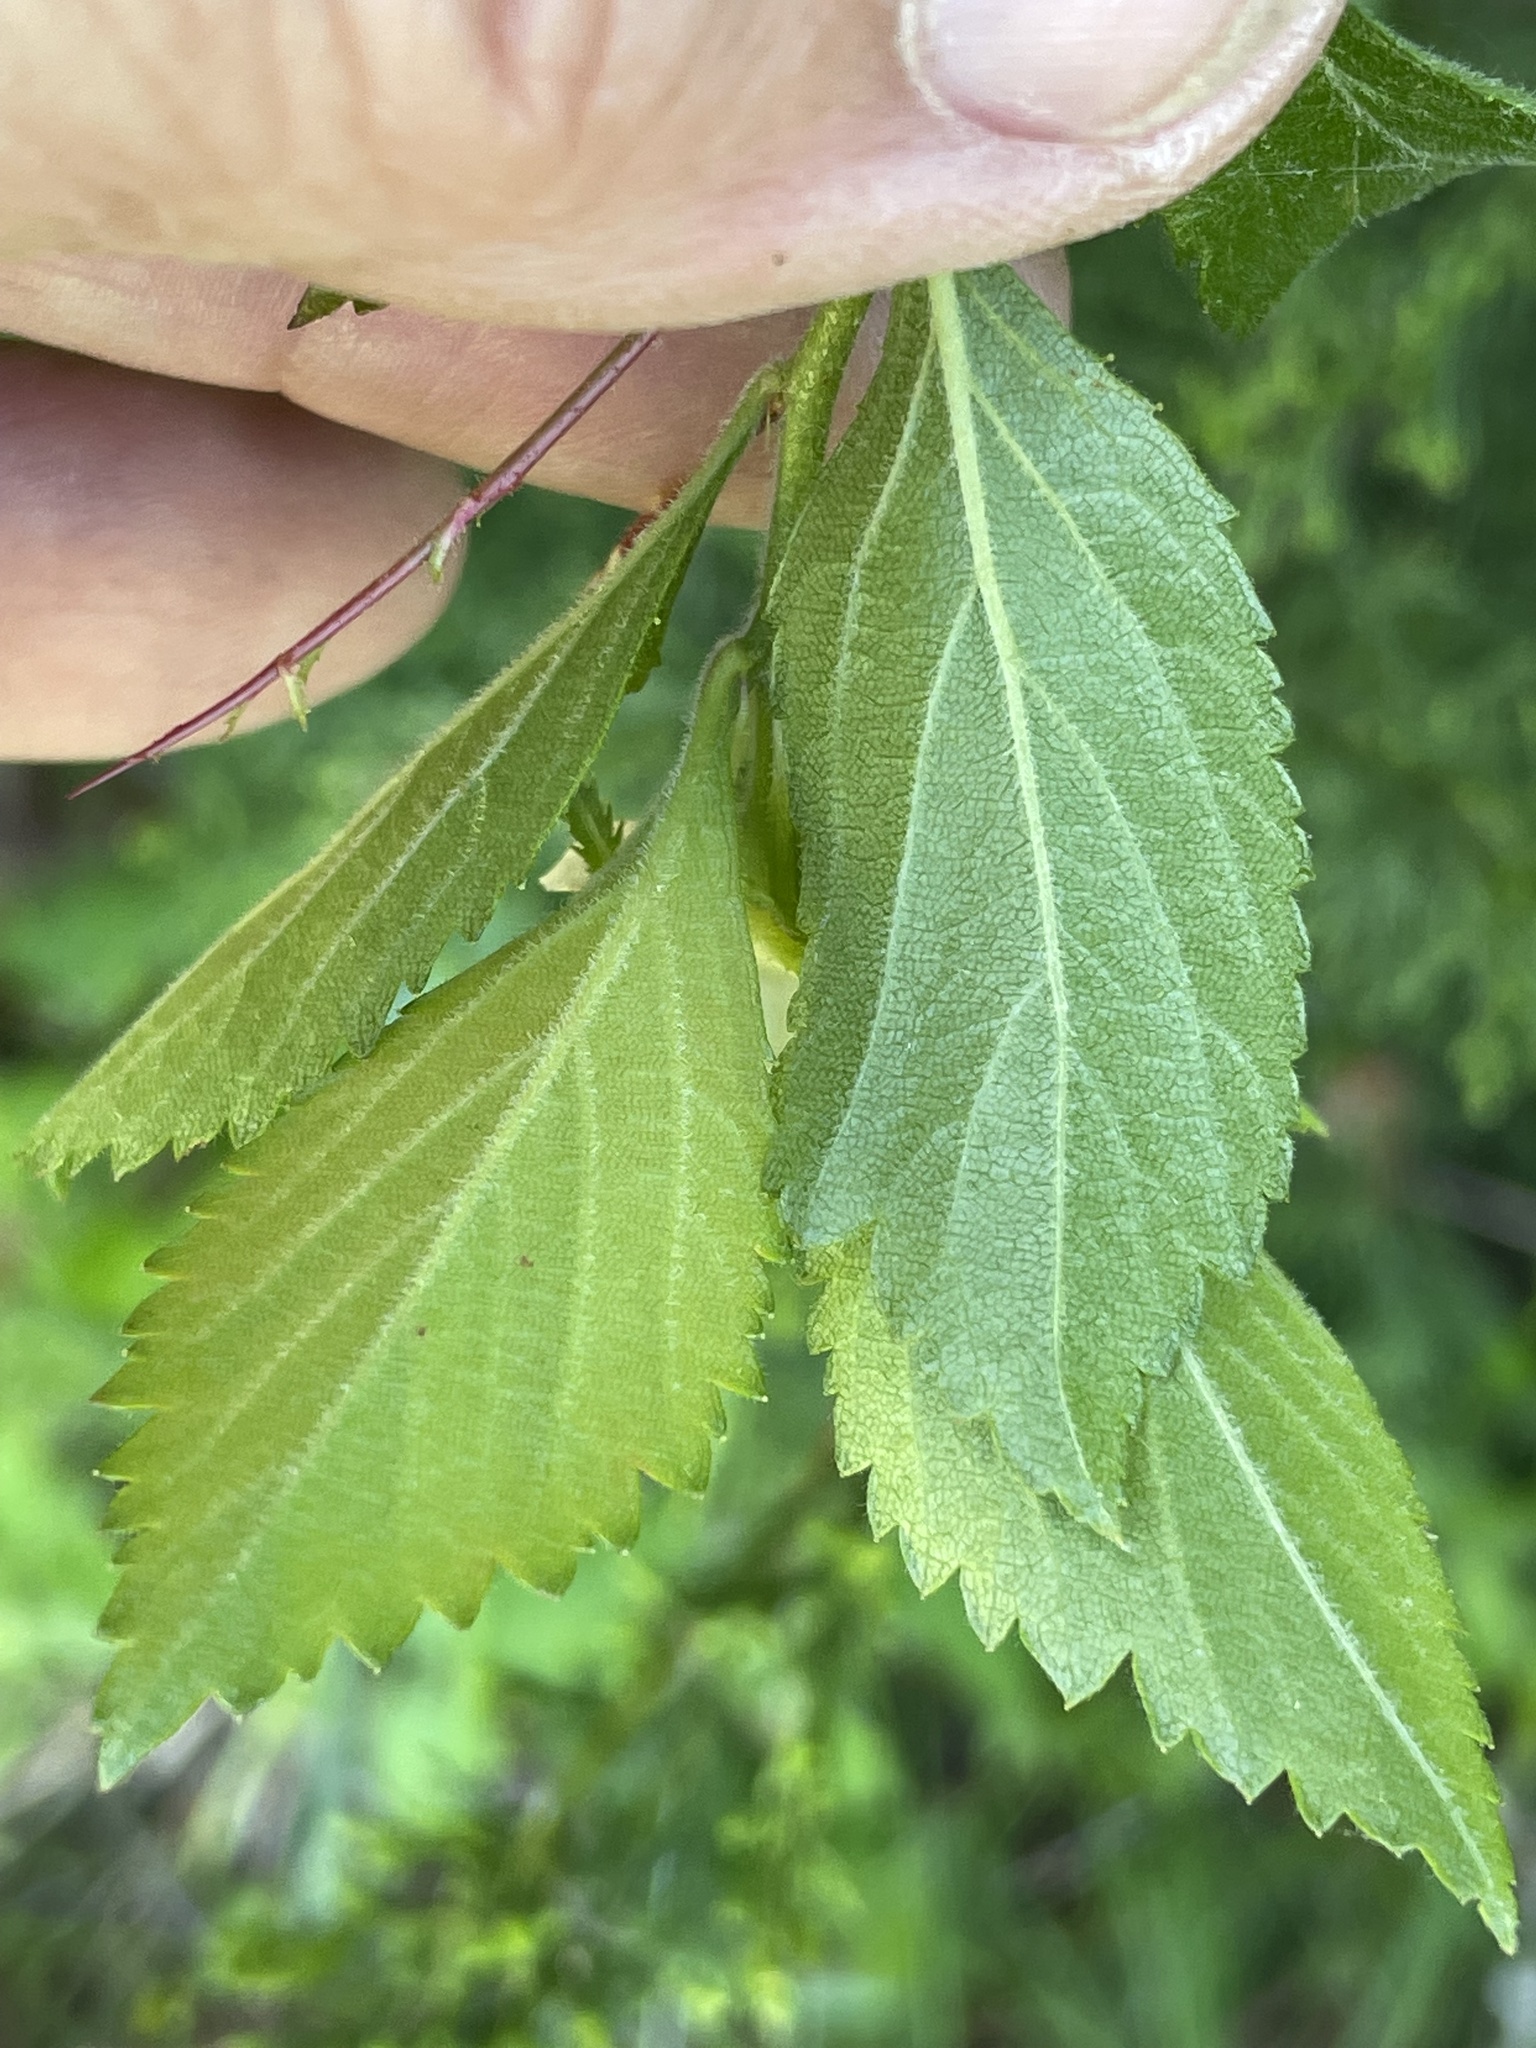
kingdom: Plantae
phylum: Tracheophyta
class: Magnoliopsida
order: Rosales
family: Rosaceae
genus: Crataegus
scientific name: Crataegus uniflora
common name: One-flower hawthorn
